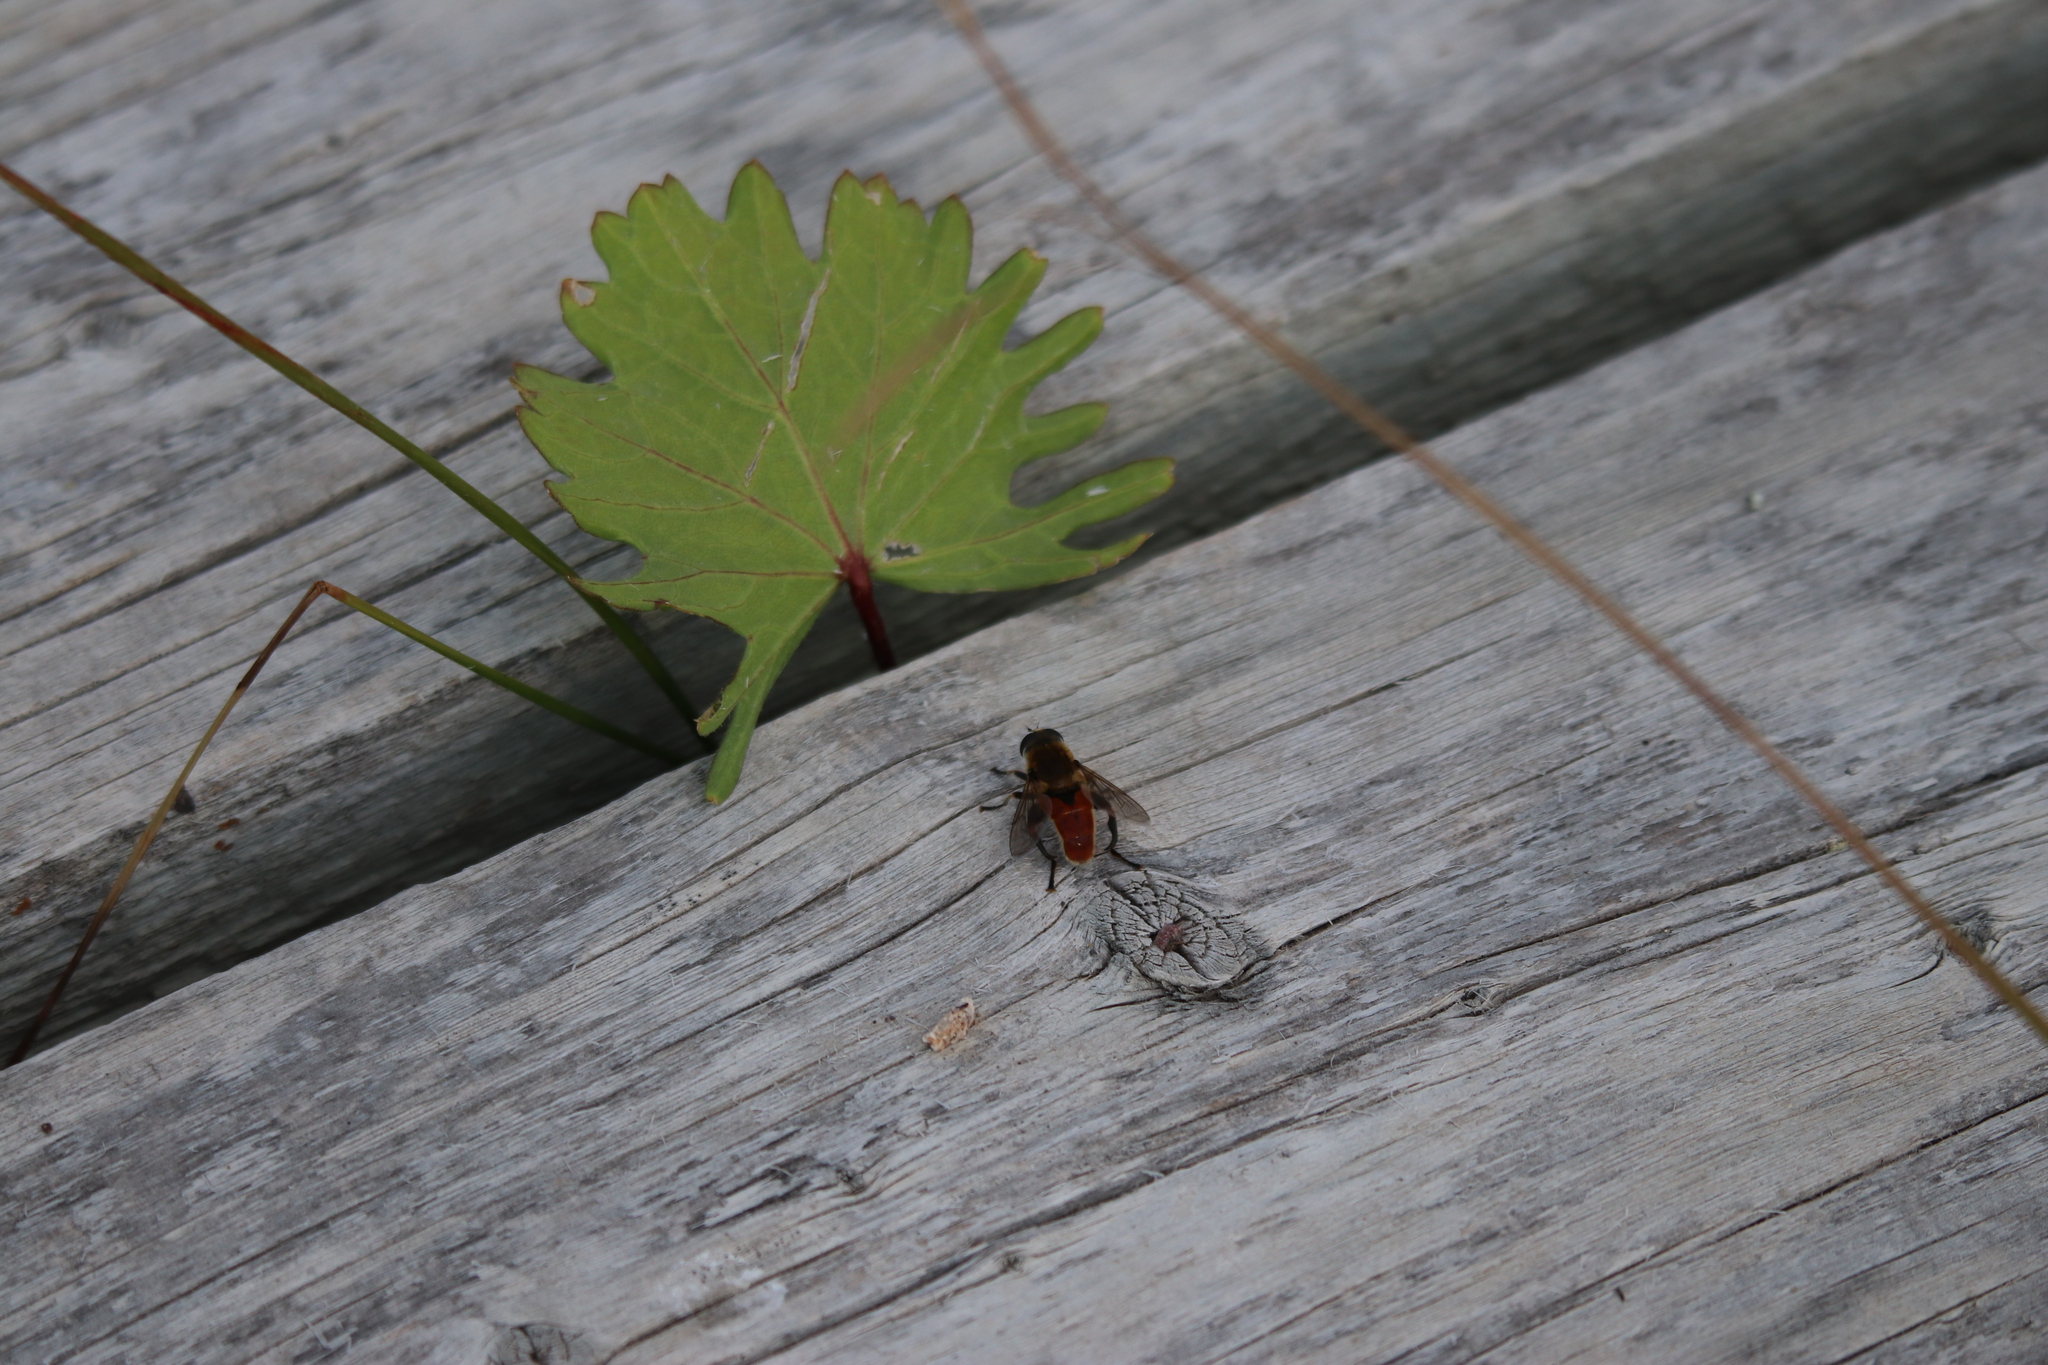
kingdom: Animalia
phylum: Arthropoda
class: Insecta
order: Diptera
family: Syrphidae
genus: Polydontomyia
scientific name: Polydontomyia curvipes
